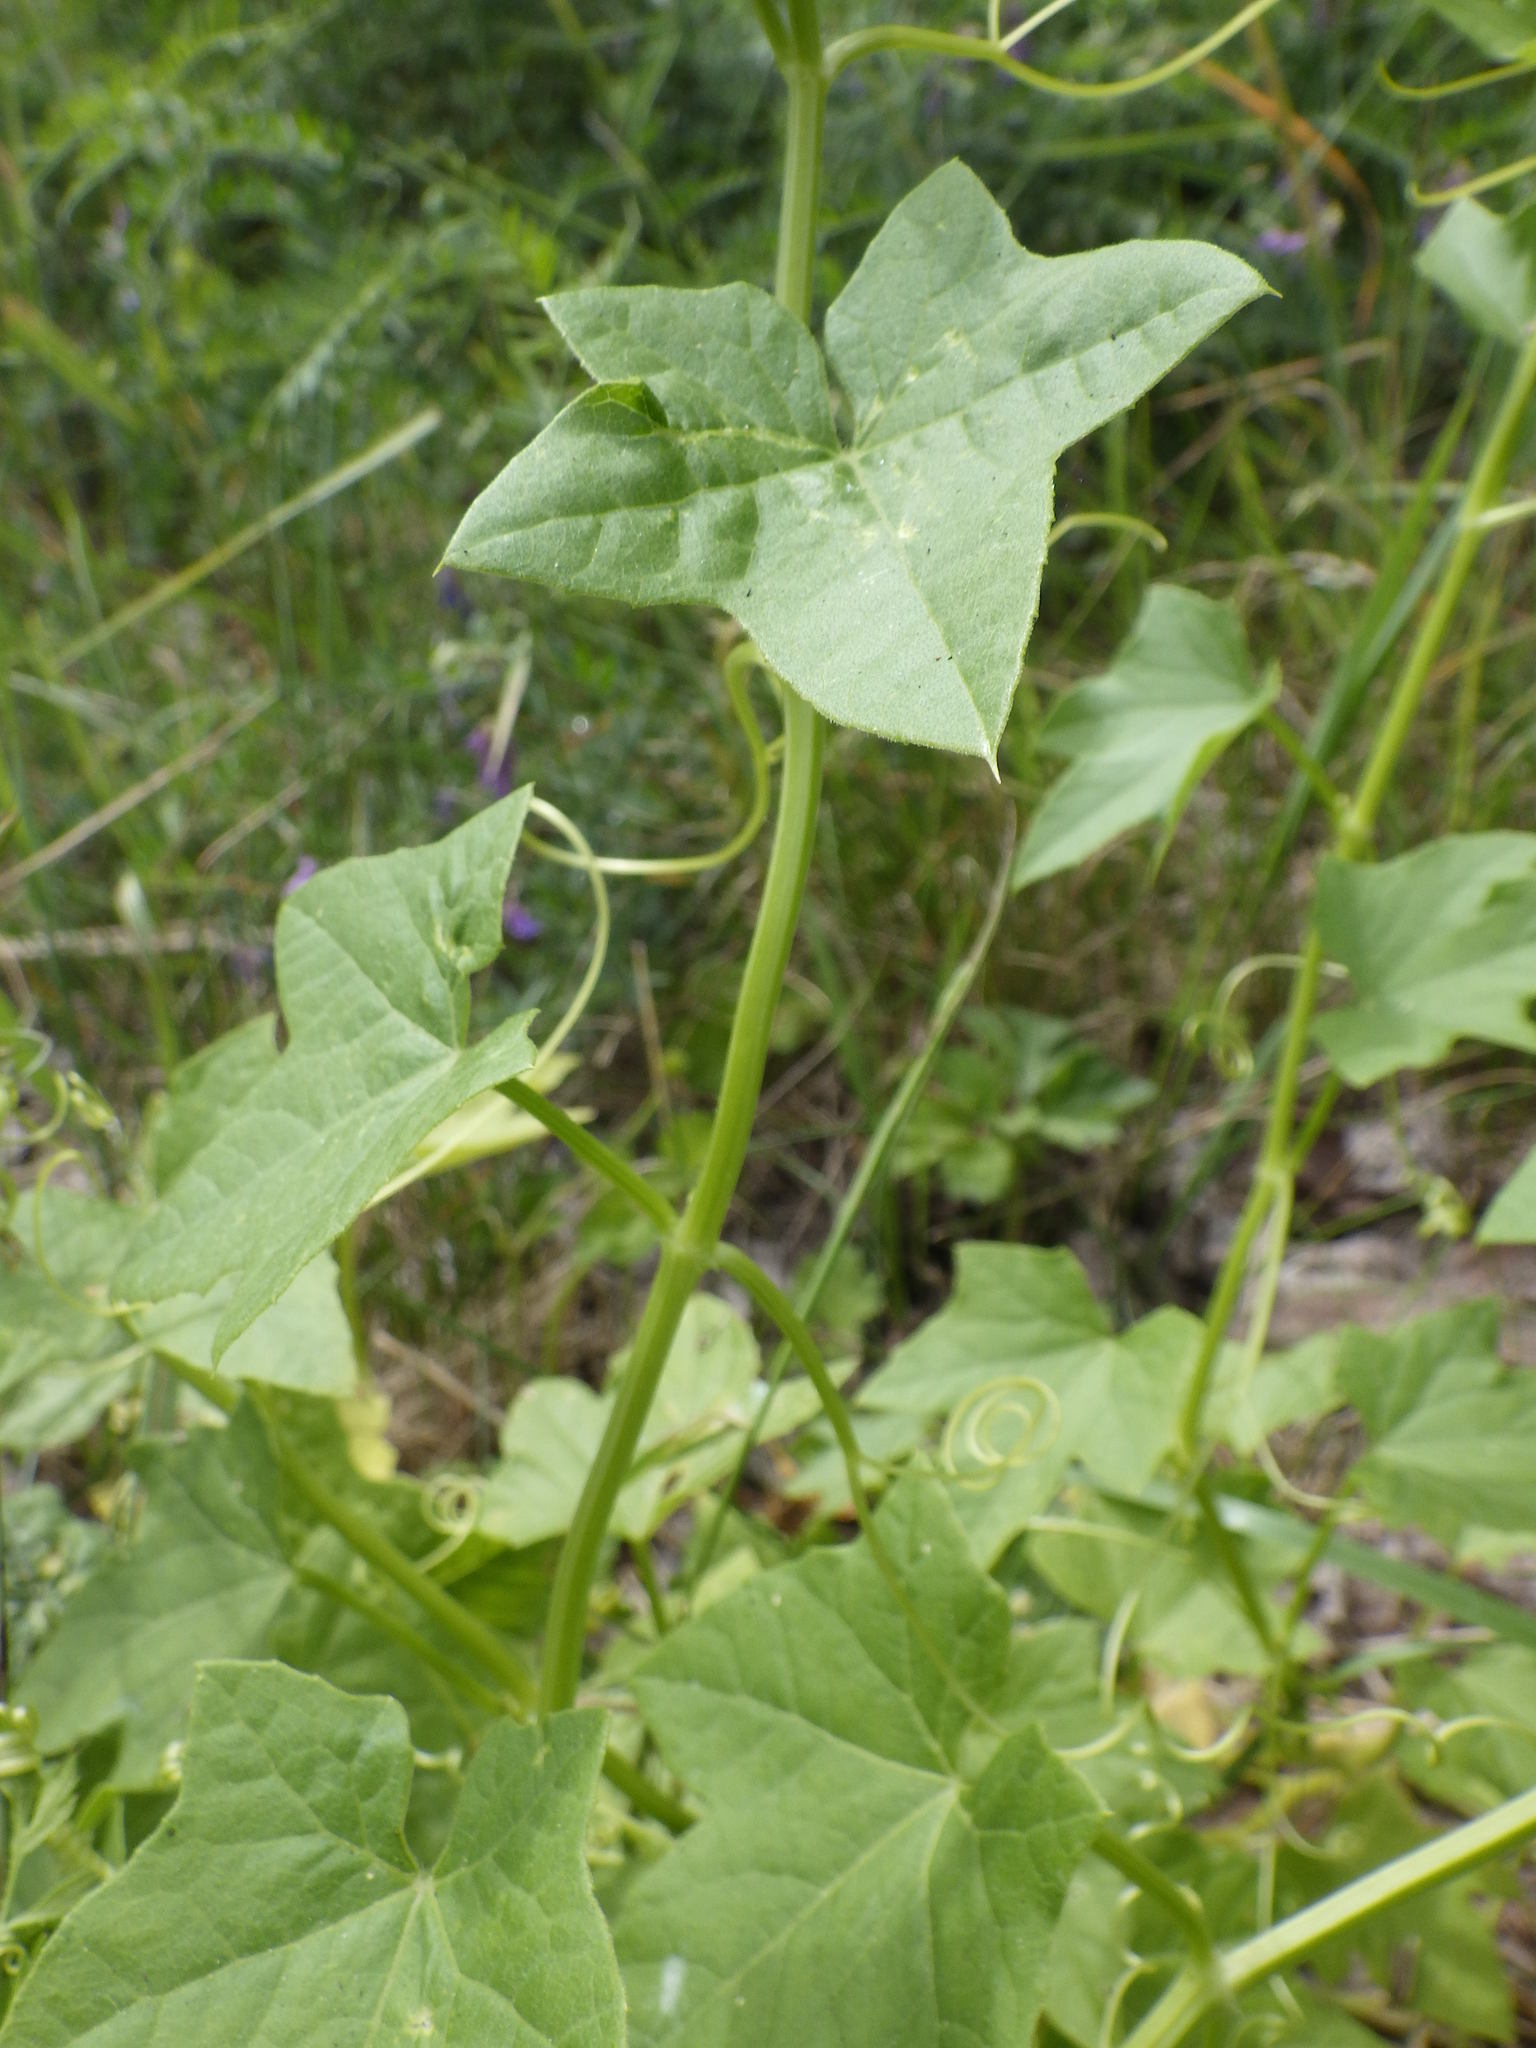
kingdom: Plantae
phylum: Tracheophyta
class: Magnoliopsida
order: Cucurbitales
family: Cucurbitaceae
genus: Echinocystis
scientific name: Echinocystis lobata
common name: Wild cucumber
